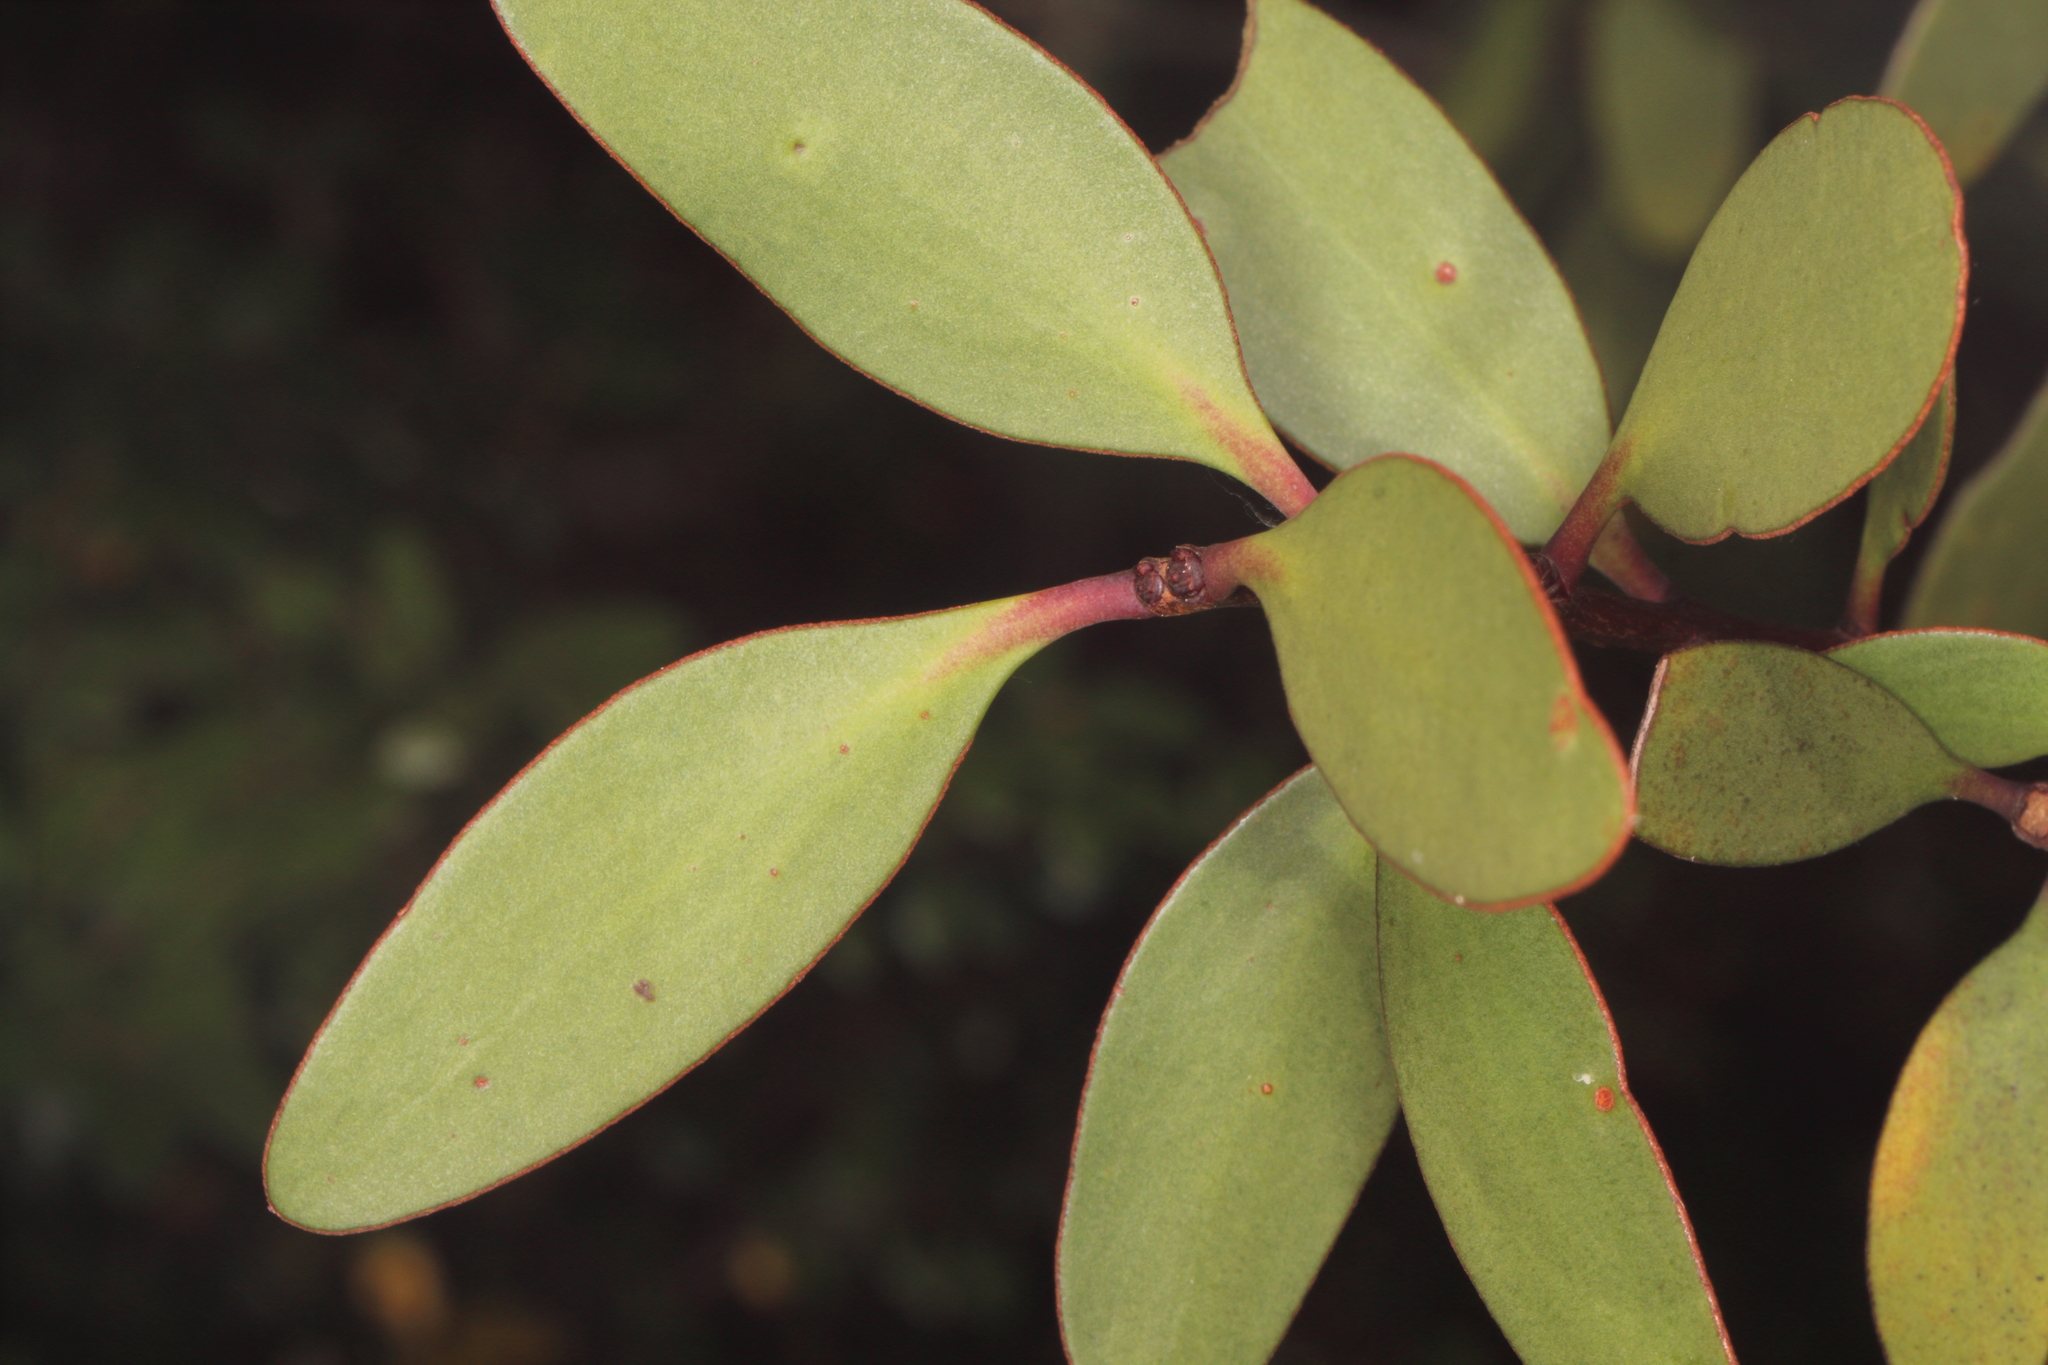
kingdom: Plantae
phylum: Tracheophyta
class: Magnoliopsida
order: Santalales
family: Loranthaceae
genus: Alepis
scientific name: Alepis flavida
